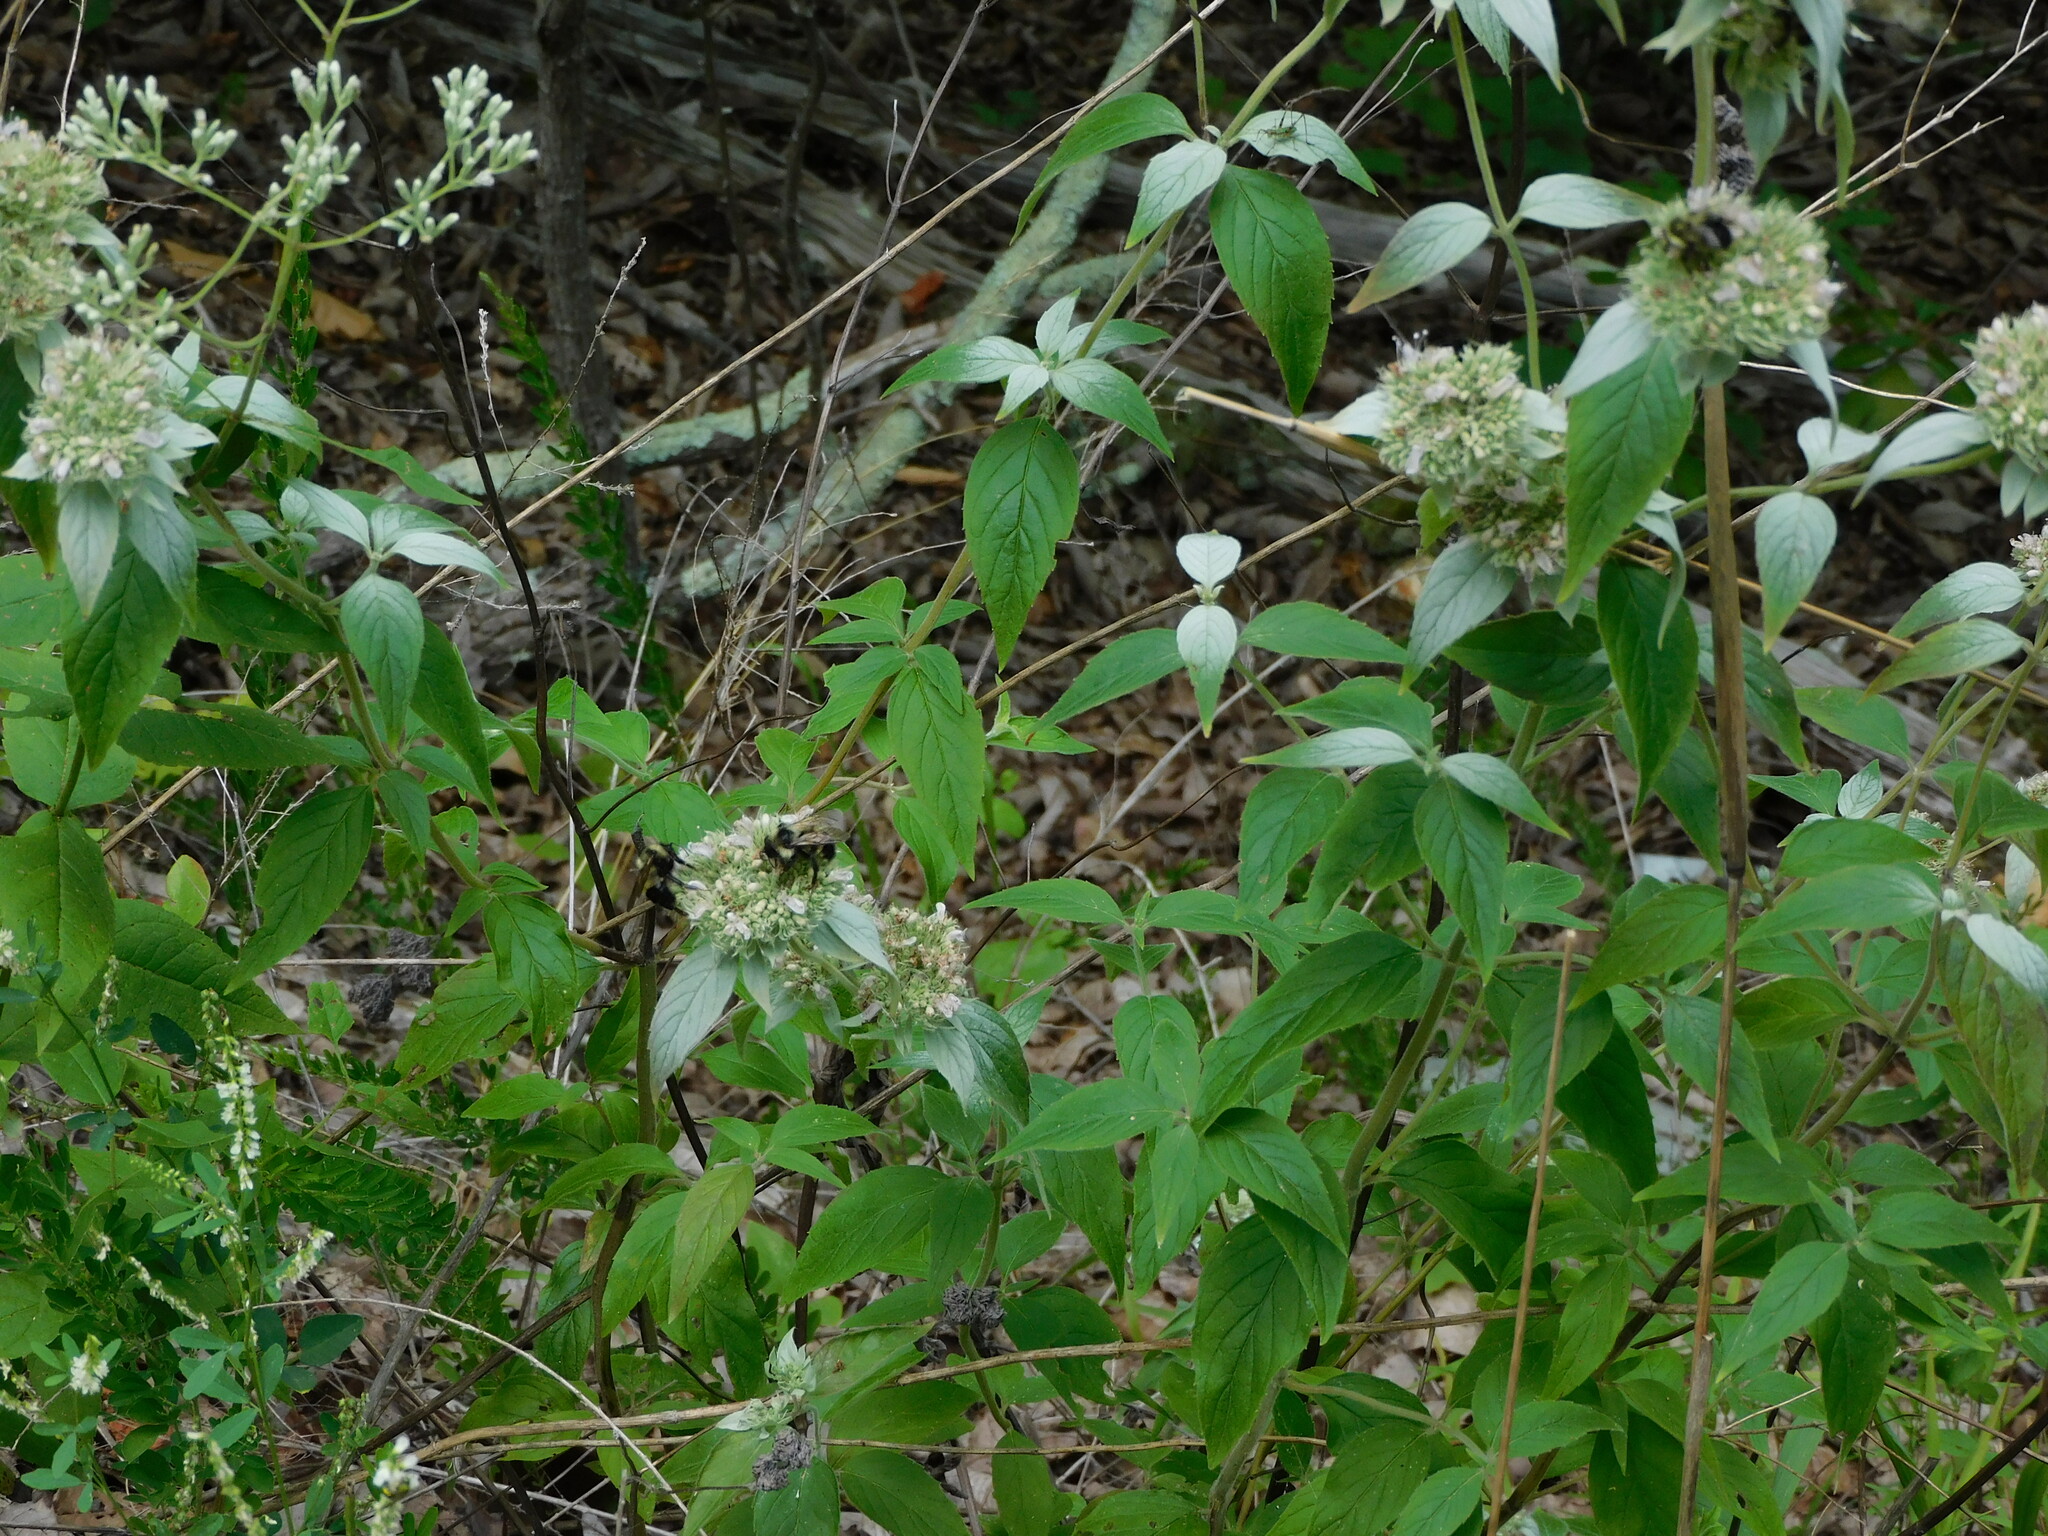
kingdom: Animalia
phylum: Arthropoda
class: Insecta
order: Hymenoptera
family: Apidae
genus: Bombus
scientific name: Bombus citrinus
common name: Lemon cuckoo bumble bee
